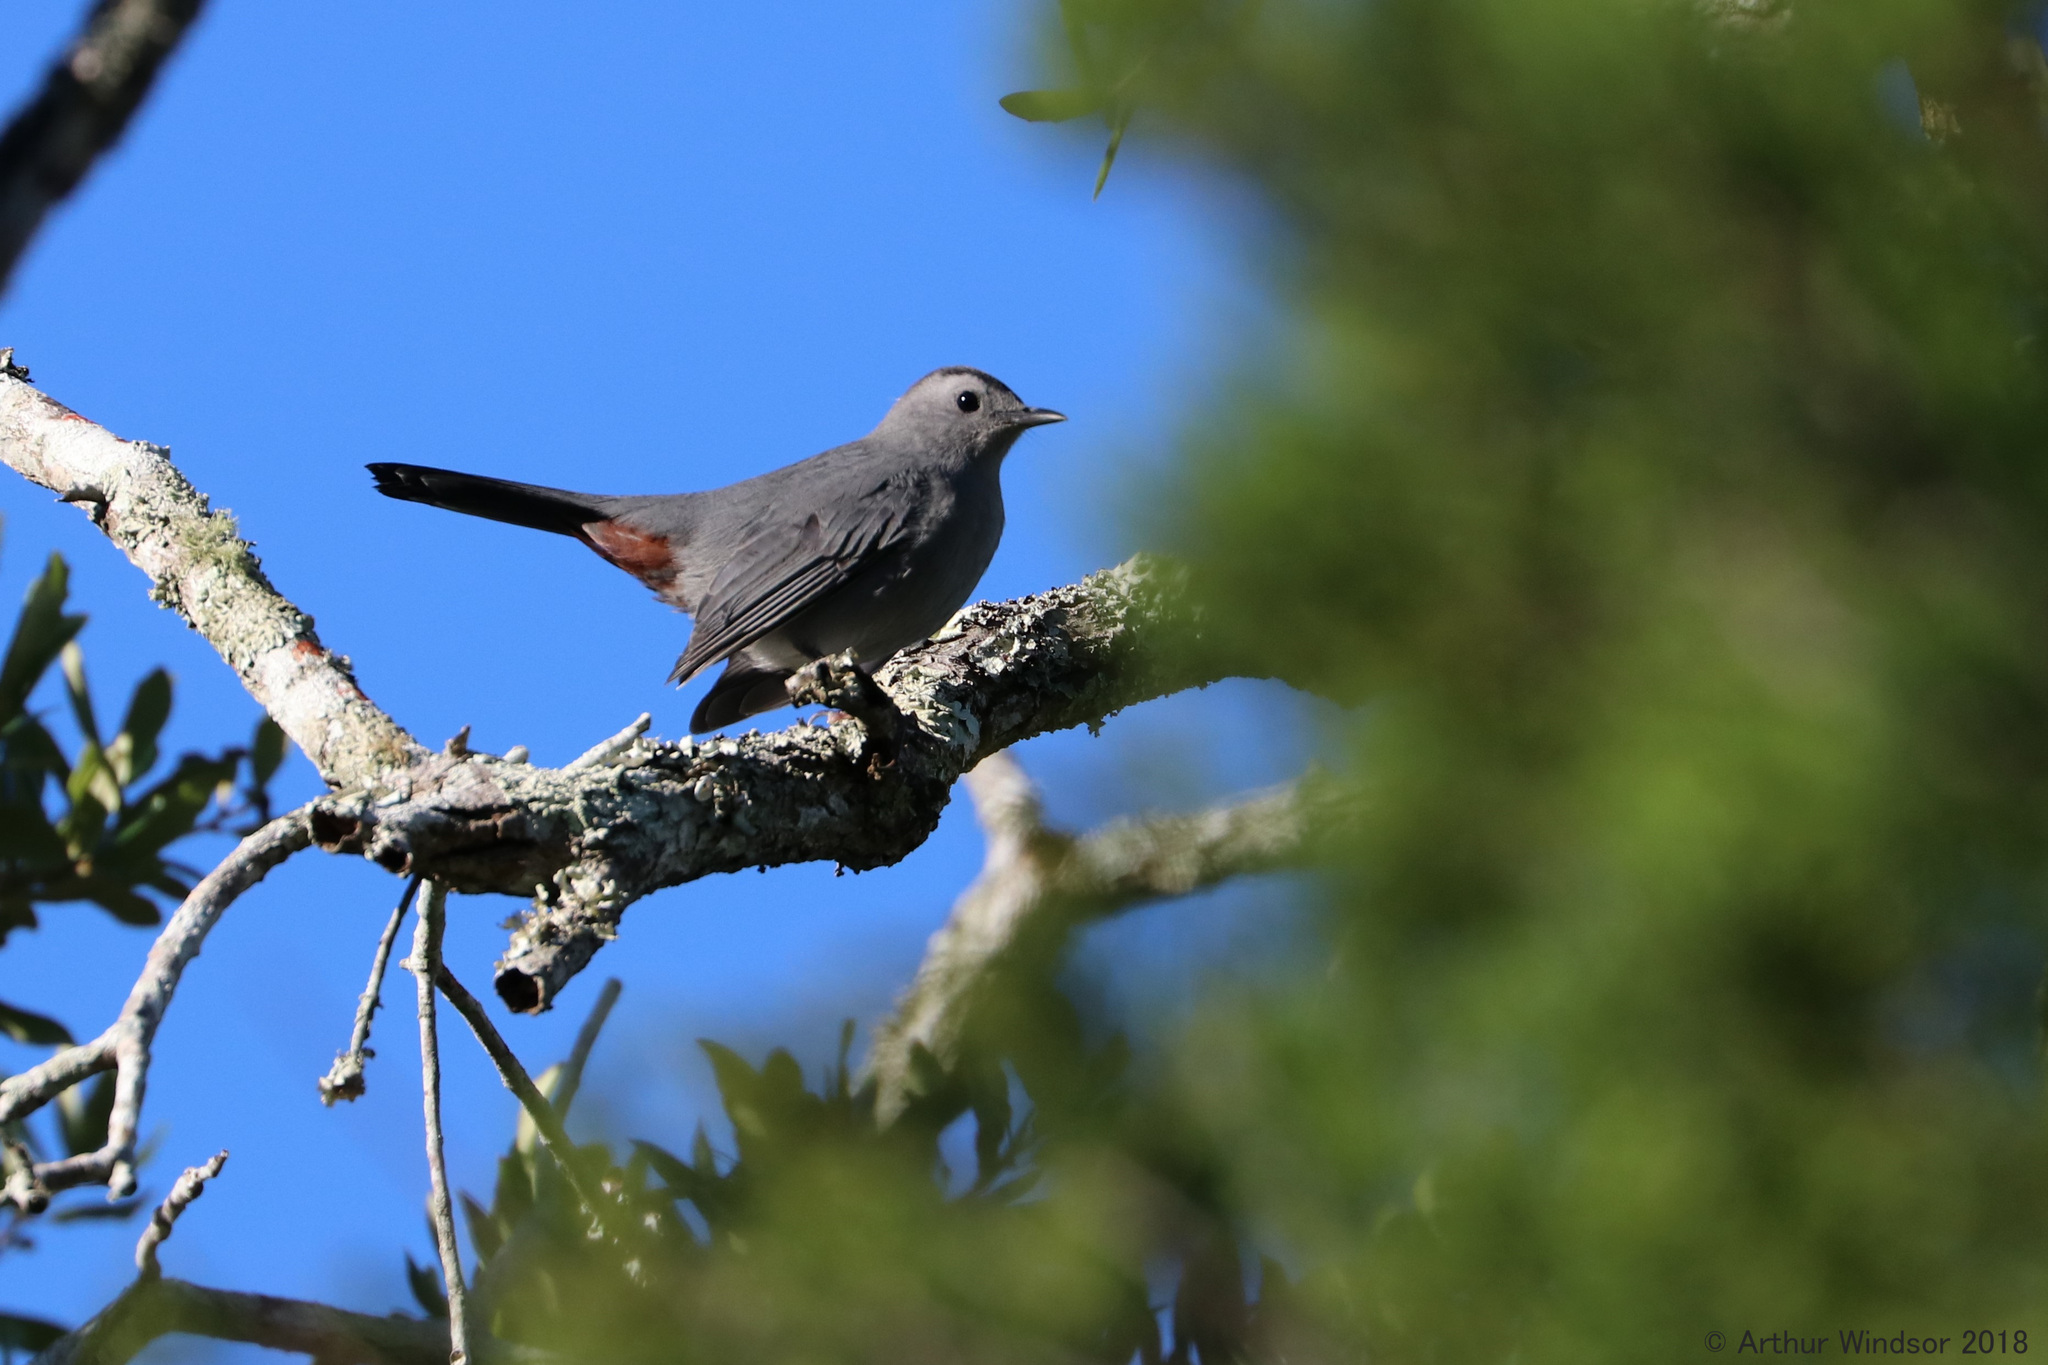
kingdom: Animalia
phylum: Chordata
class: Aves
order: Passeriformes
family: Mimidae
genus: Dumetella
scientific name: Dumetella carolinensis
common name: Gray catbird
